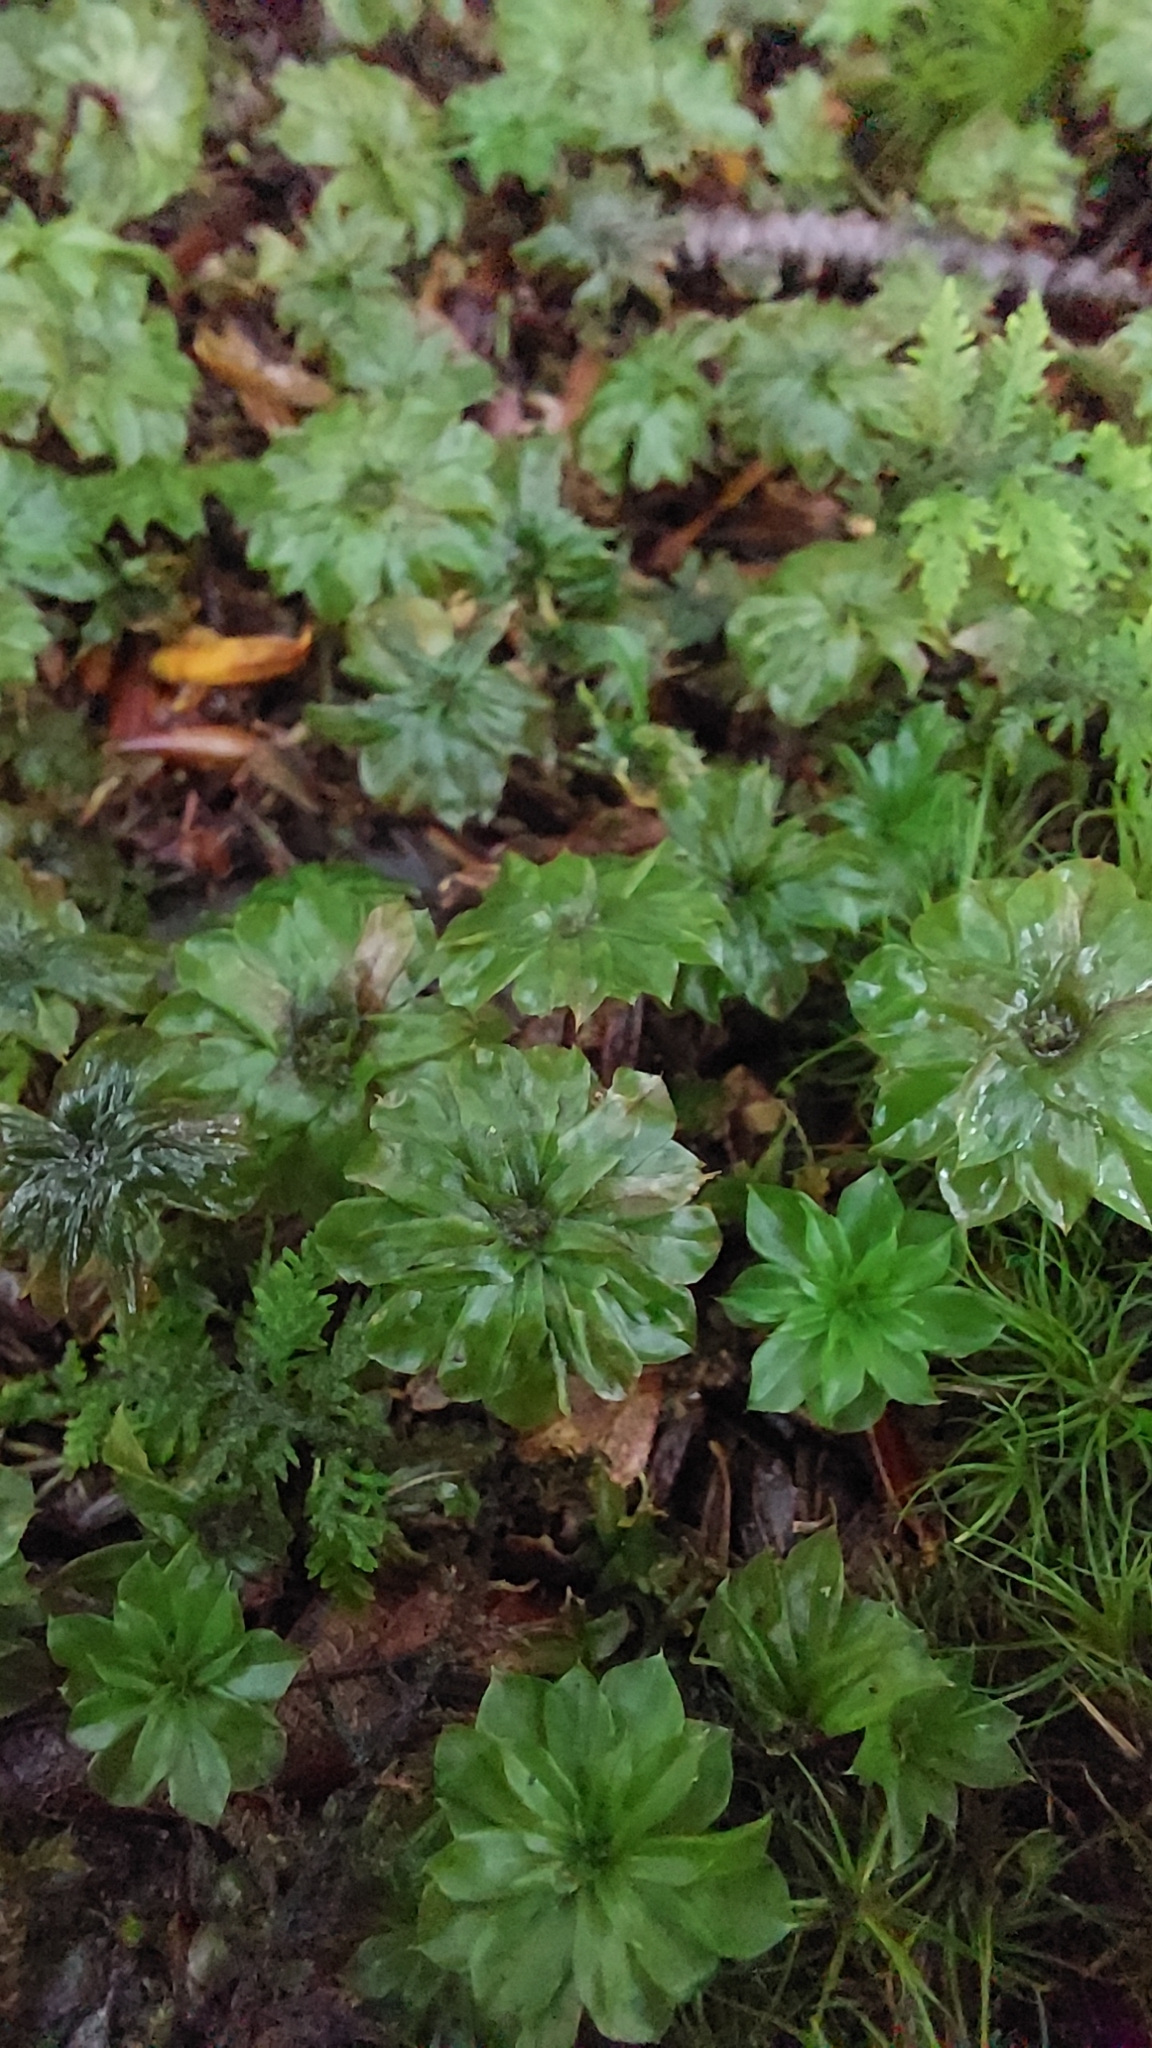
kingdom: Plantae
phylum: Bryophyta
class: Bryopsida
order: Bryales
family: Bryaceae
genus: Rhodobryum
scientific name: Rhodobryum ontariense
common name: Ontario rhodobryum moss
